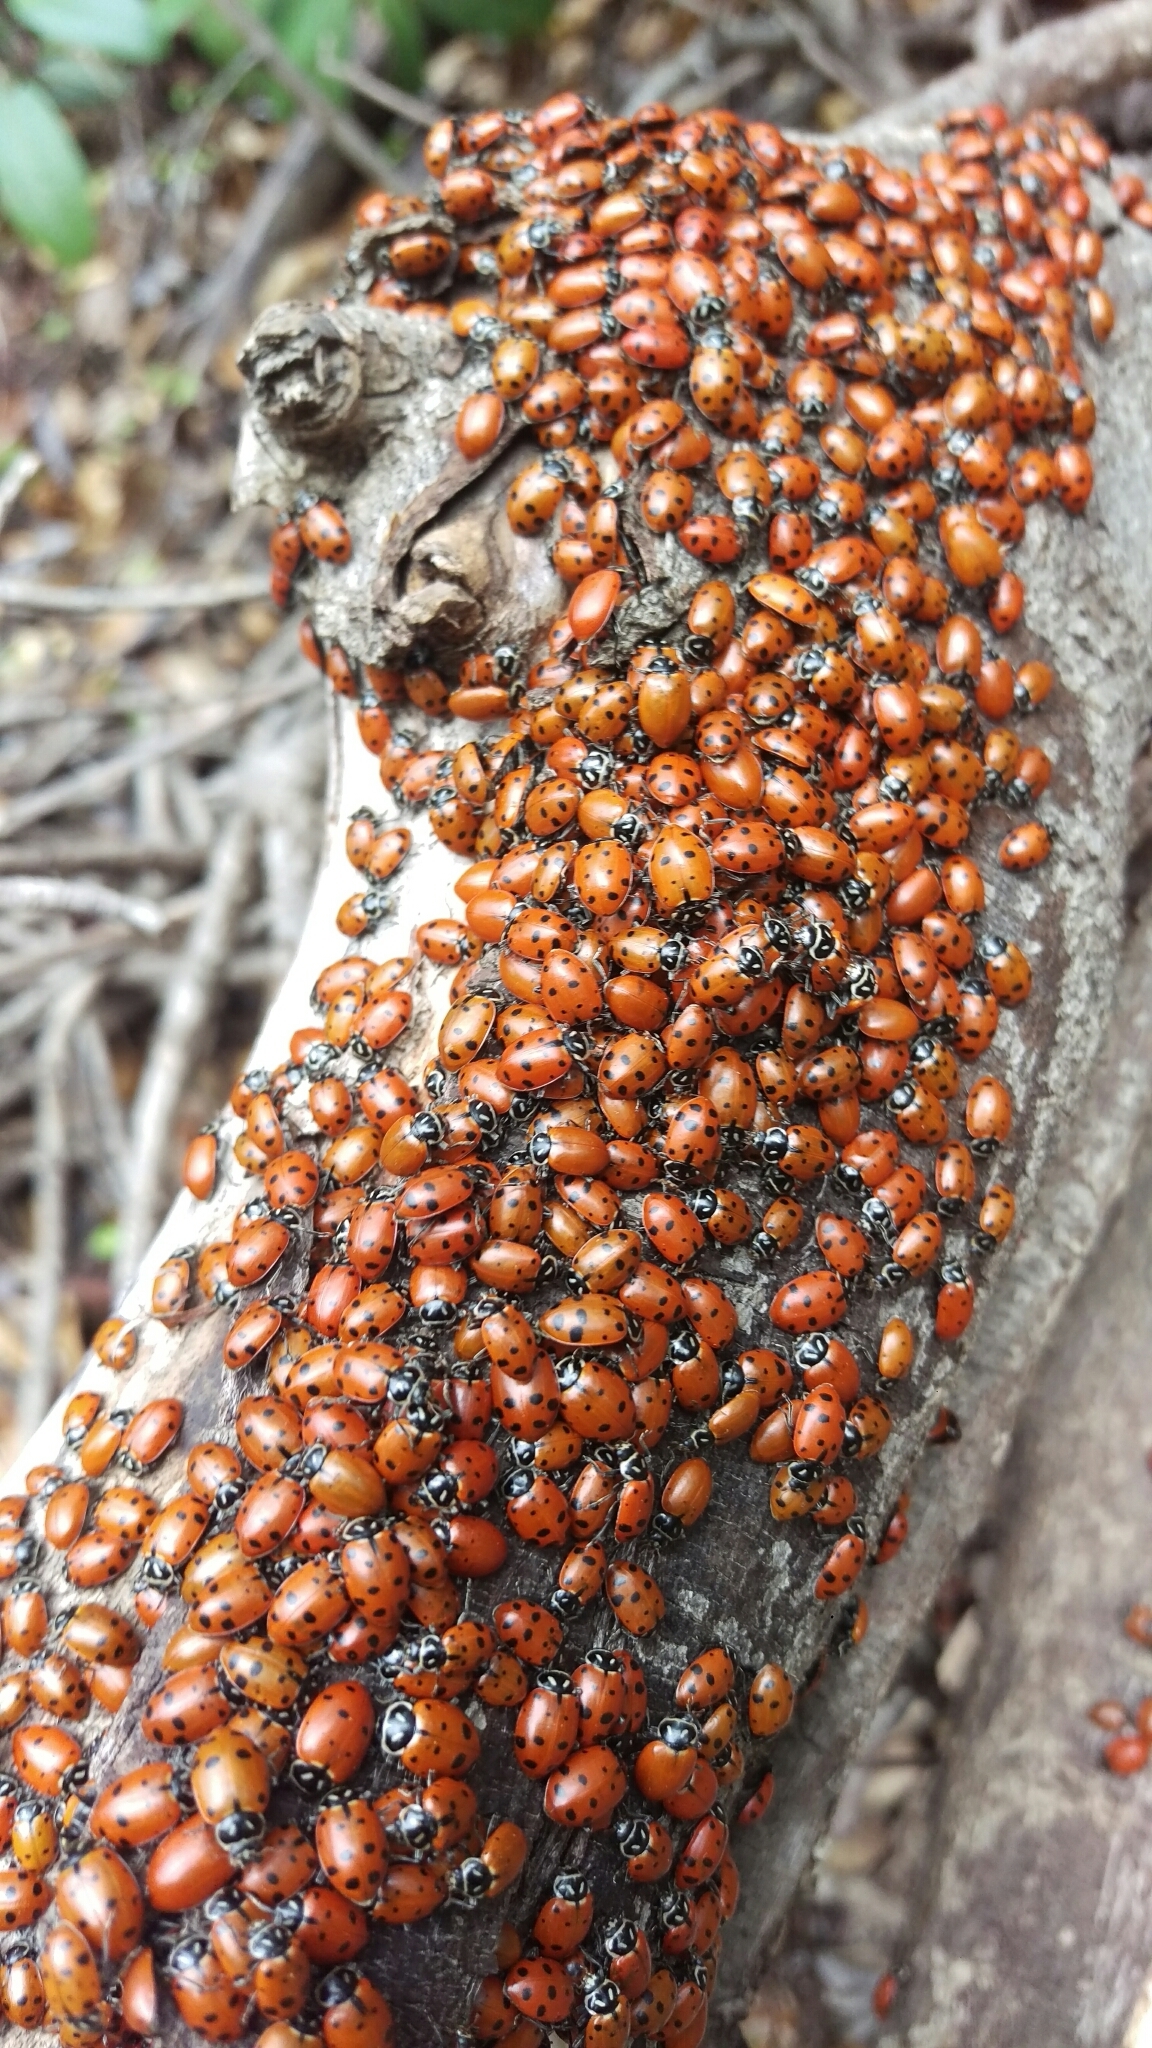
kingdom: Animalia
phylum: Arthropoda
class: Insecta
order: Coleoptera
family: Coccinellidae
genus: Hippodamia
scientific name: Hippodamia convergens
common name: Convergent lady beetle
